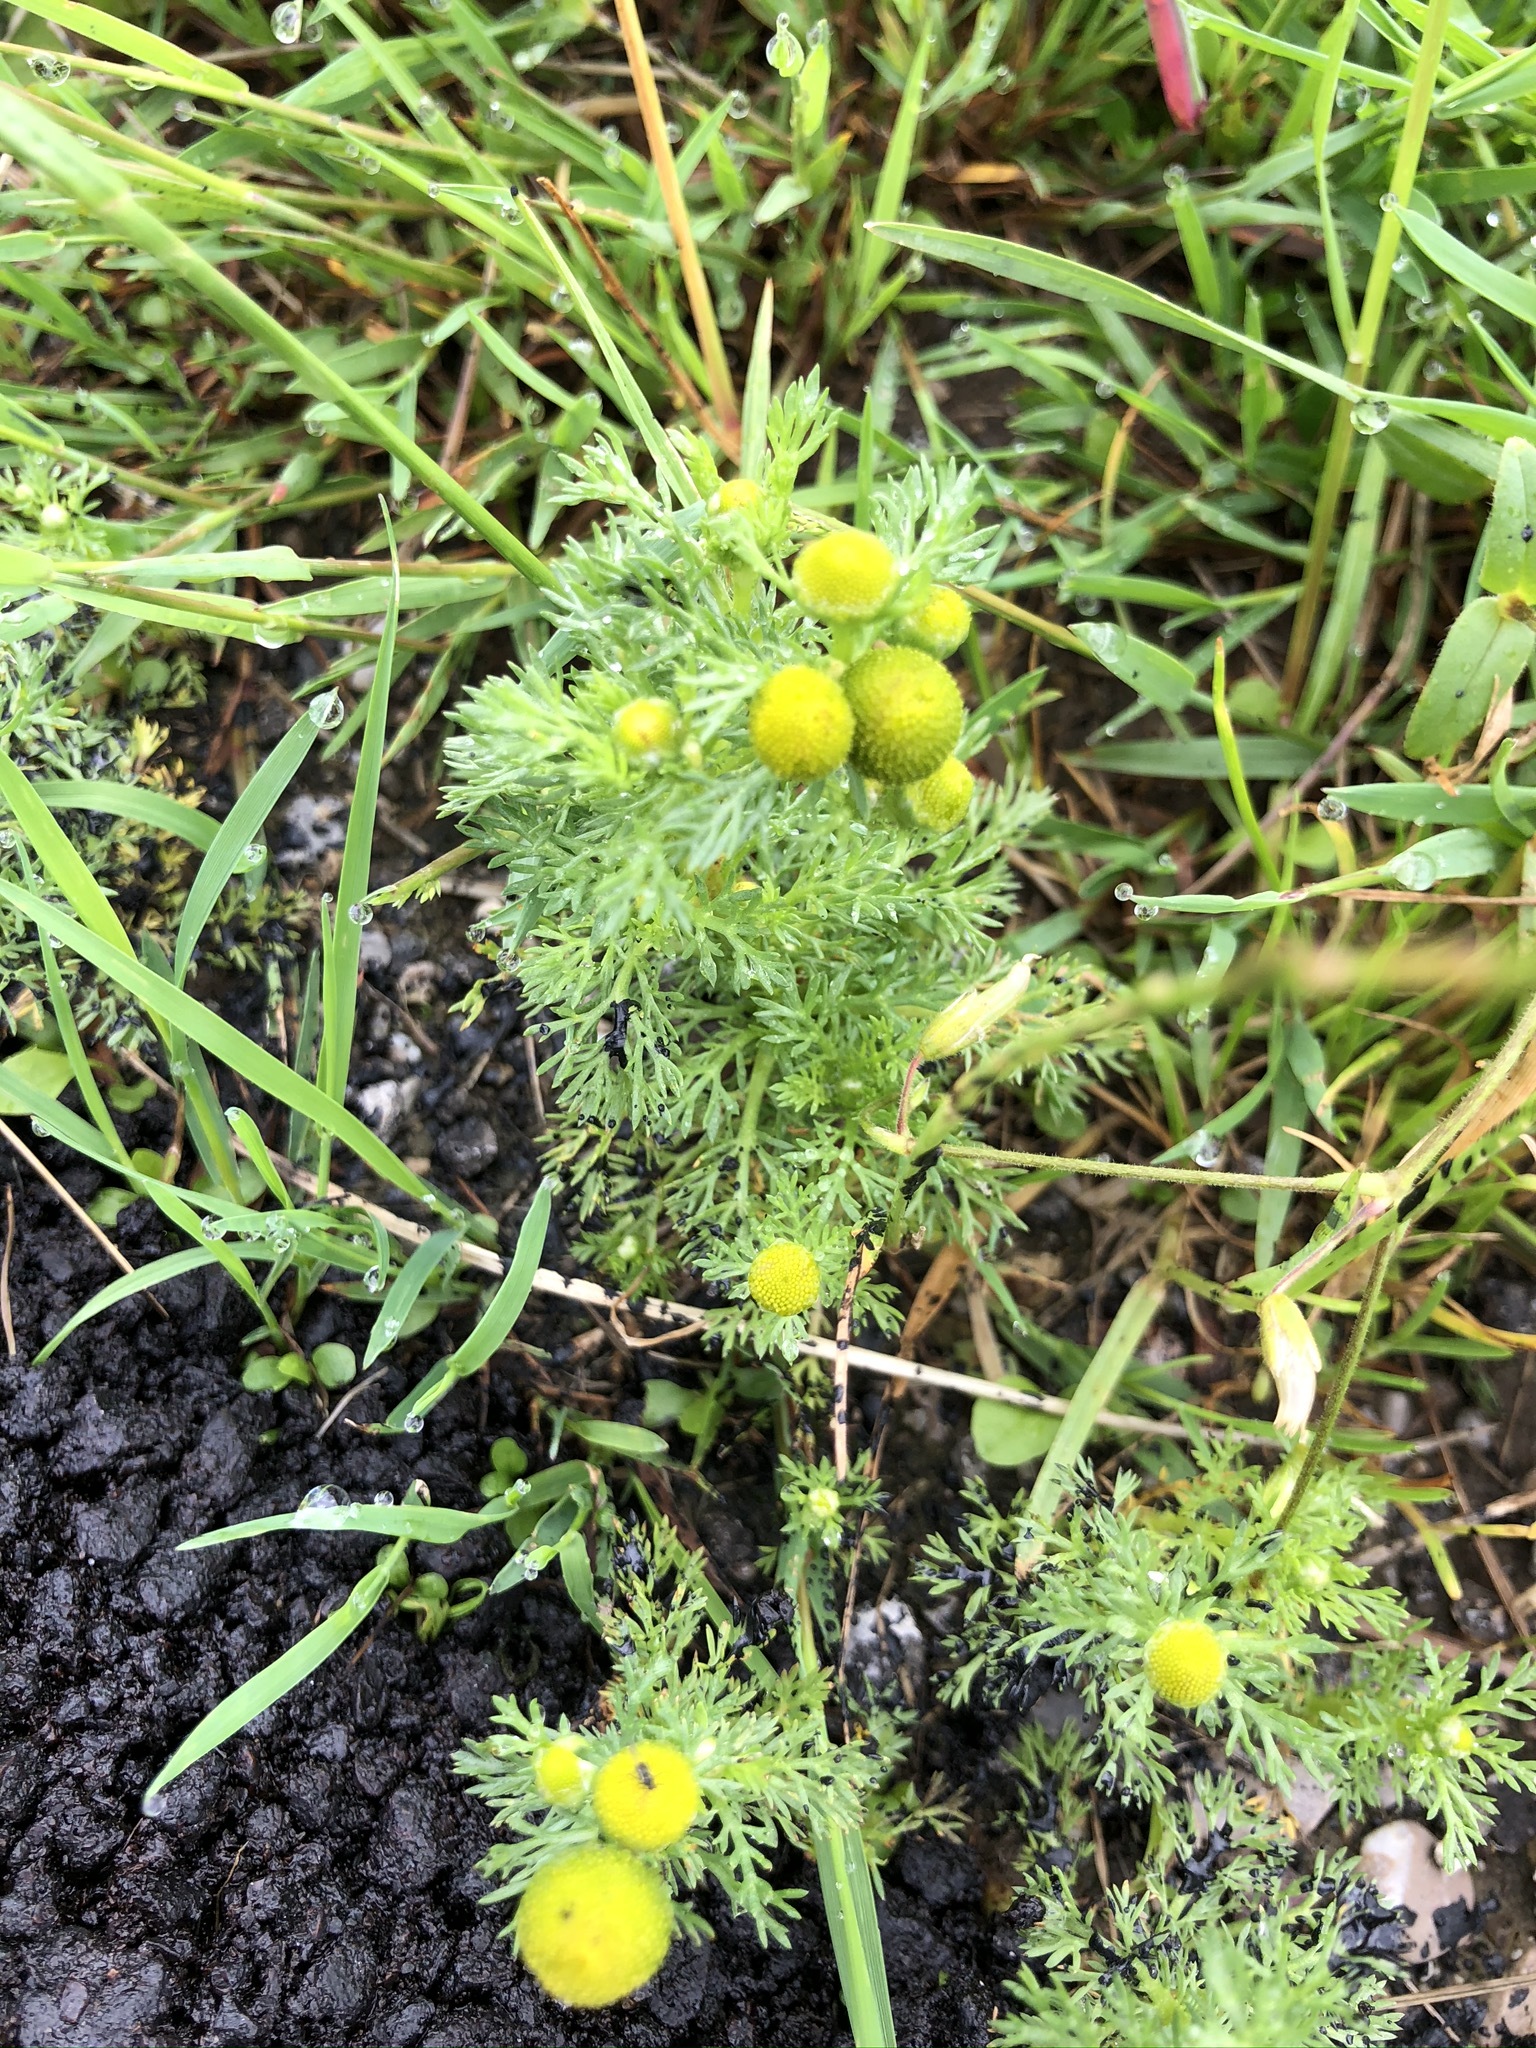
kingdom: Plantae
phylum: Tracheophyta
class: Magnoliopsida
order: Asterales
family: Asteraceae
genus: Matricaria
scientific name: Matricaria discoidea
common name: Disc mayweed
